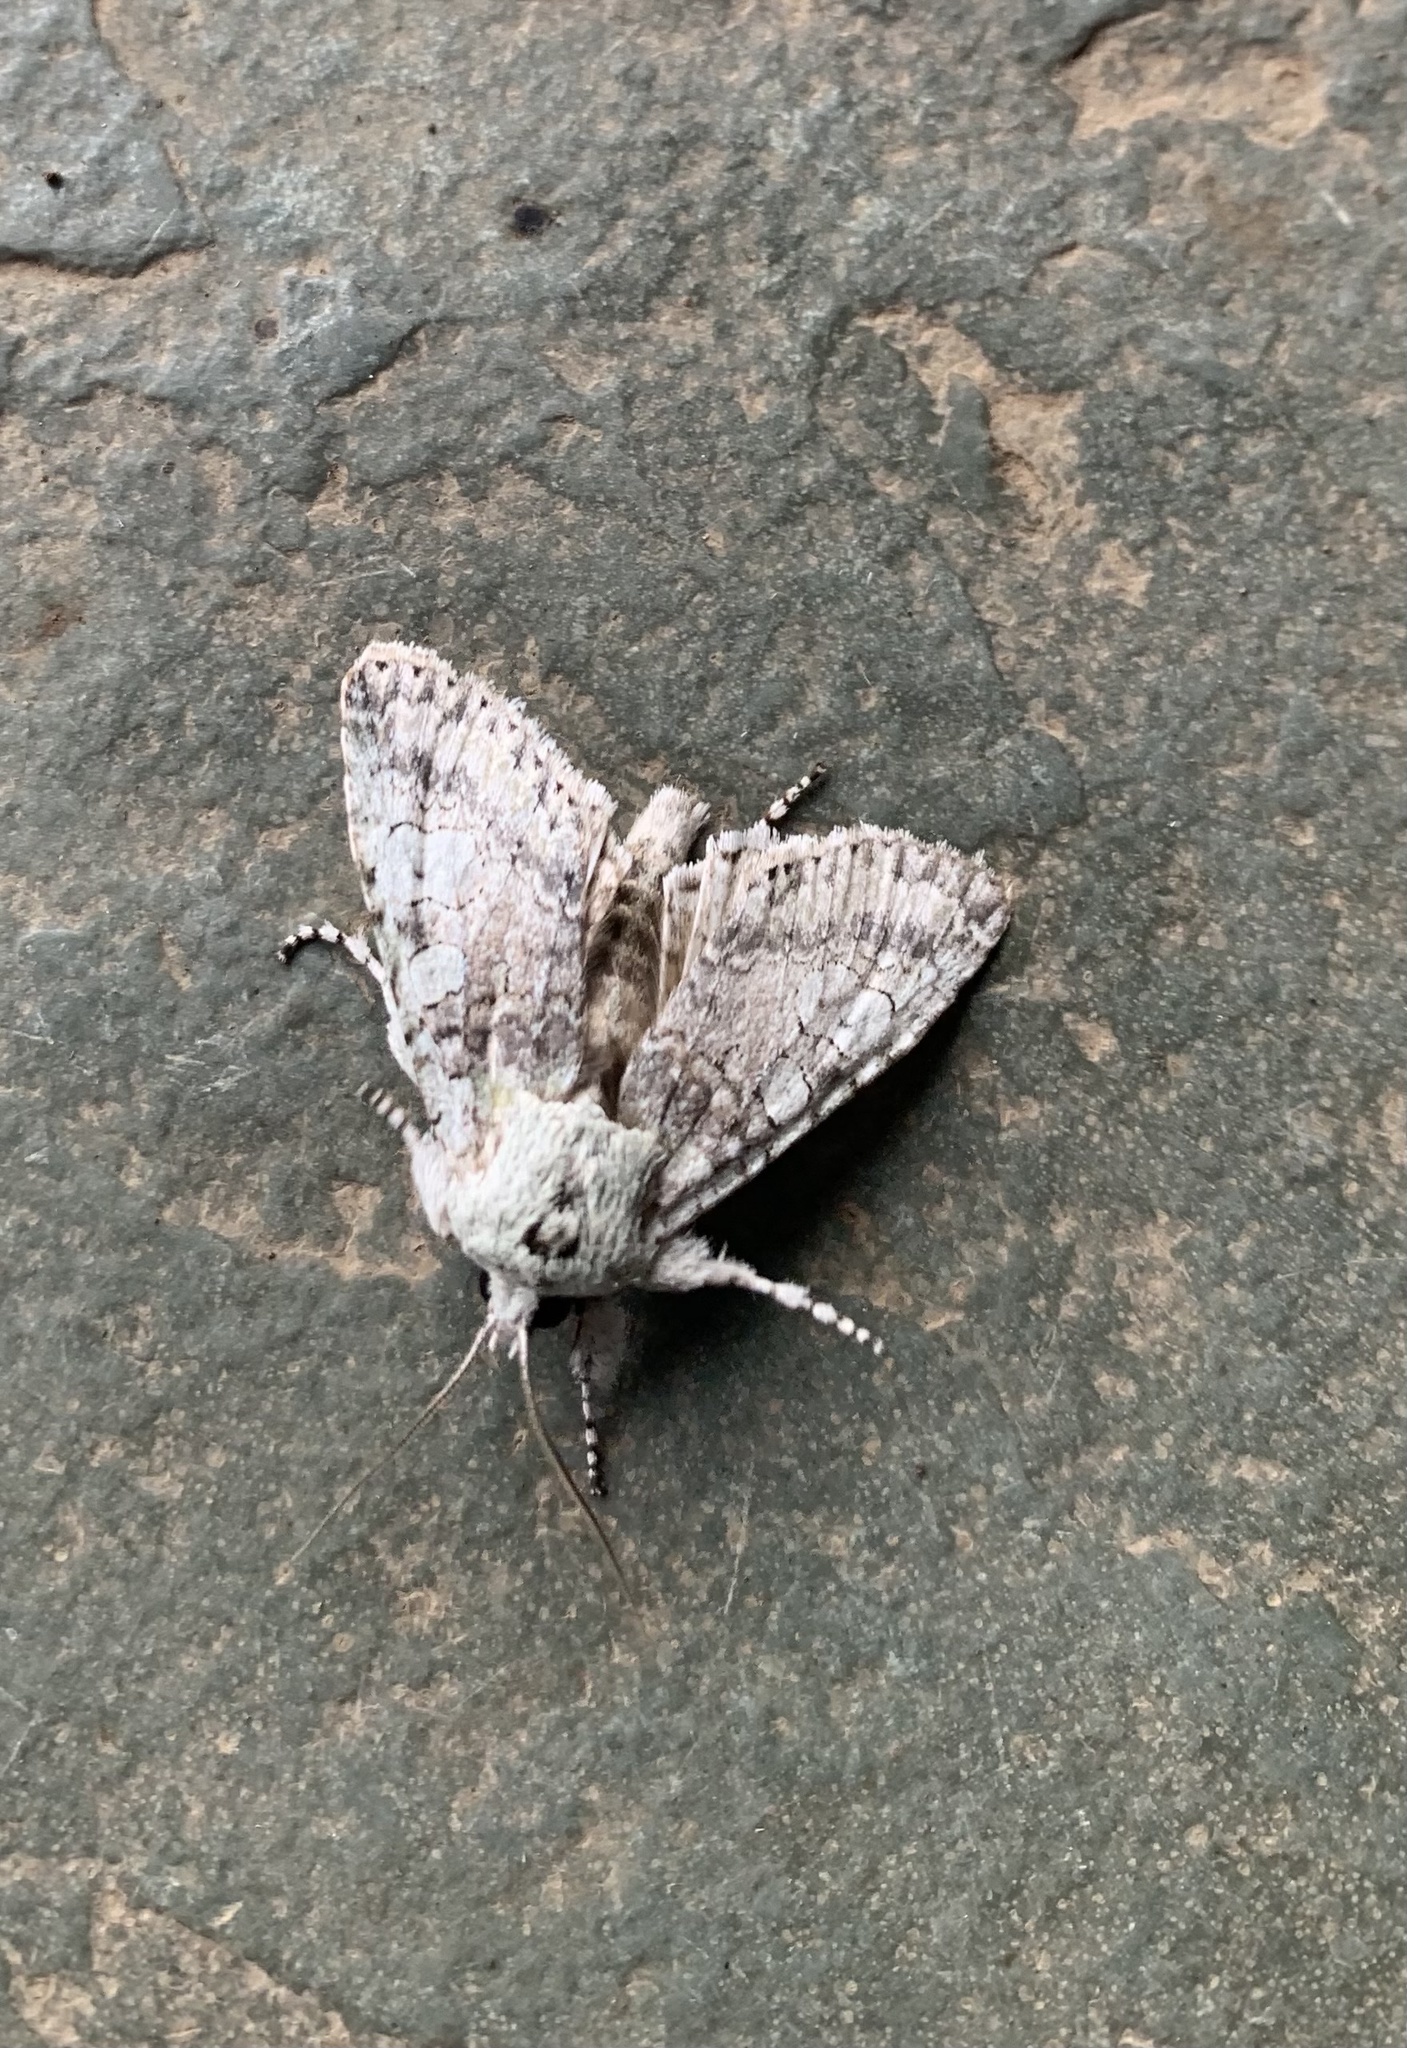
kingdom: Animalia
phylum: Arthropoda
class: Insecta
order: Lepidoptera
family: Noctuidae
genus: Pseudocerura
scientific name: Pseudocerura thoracica
